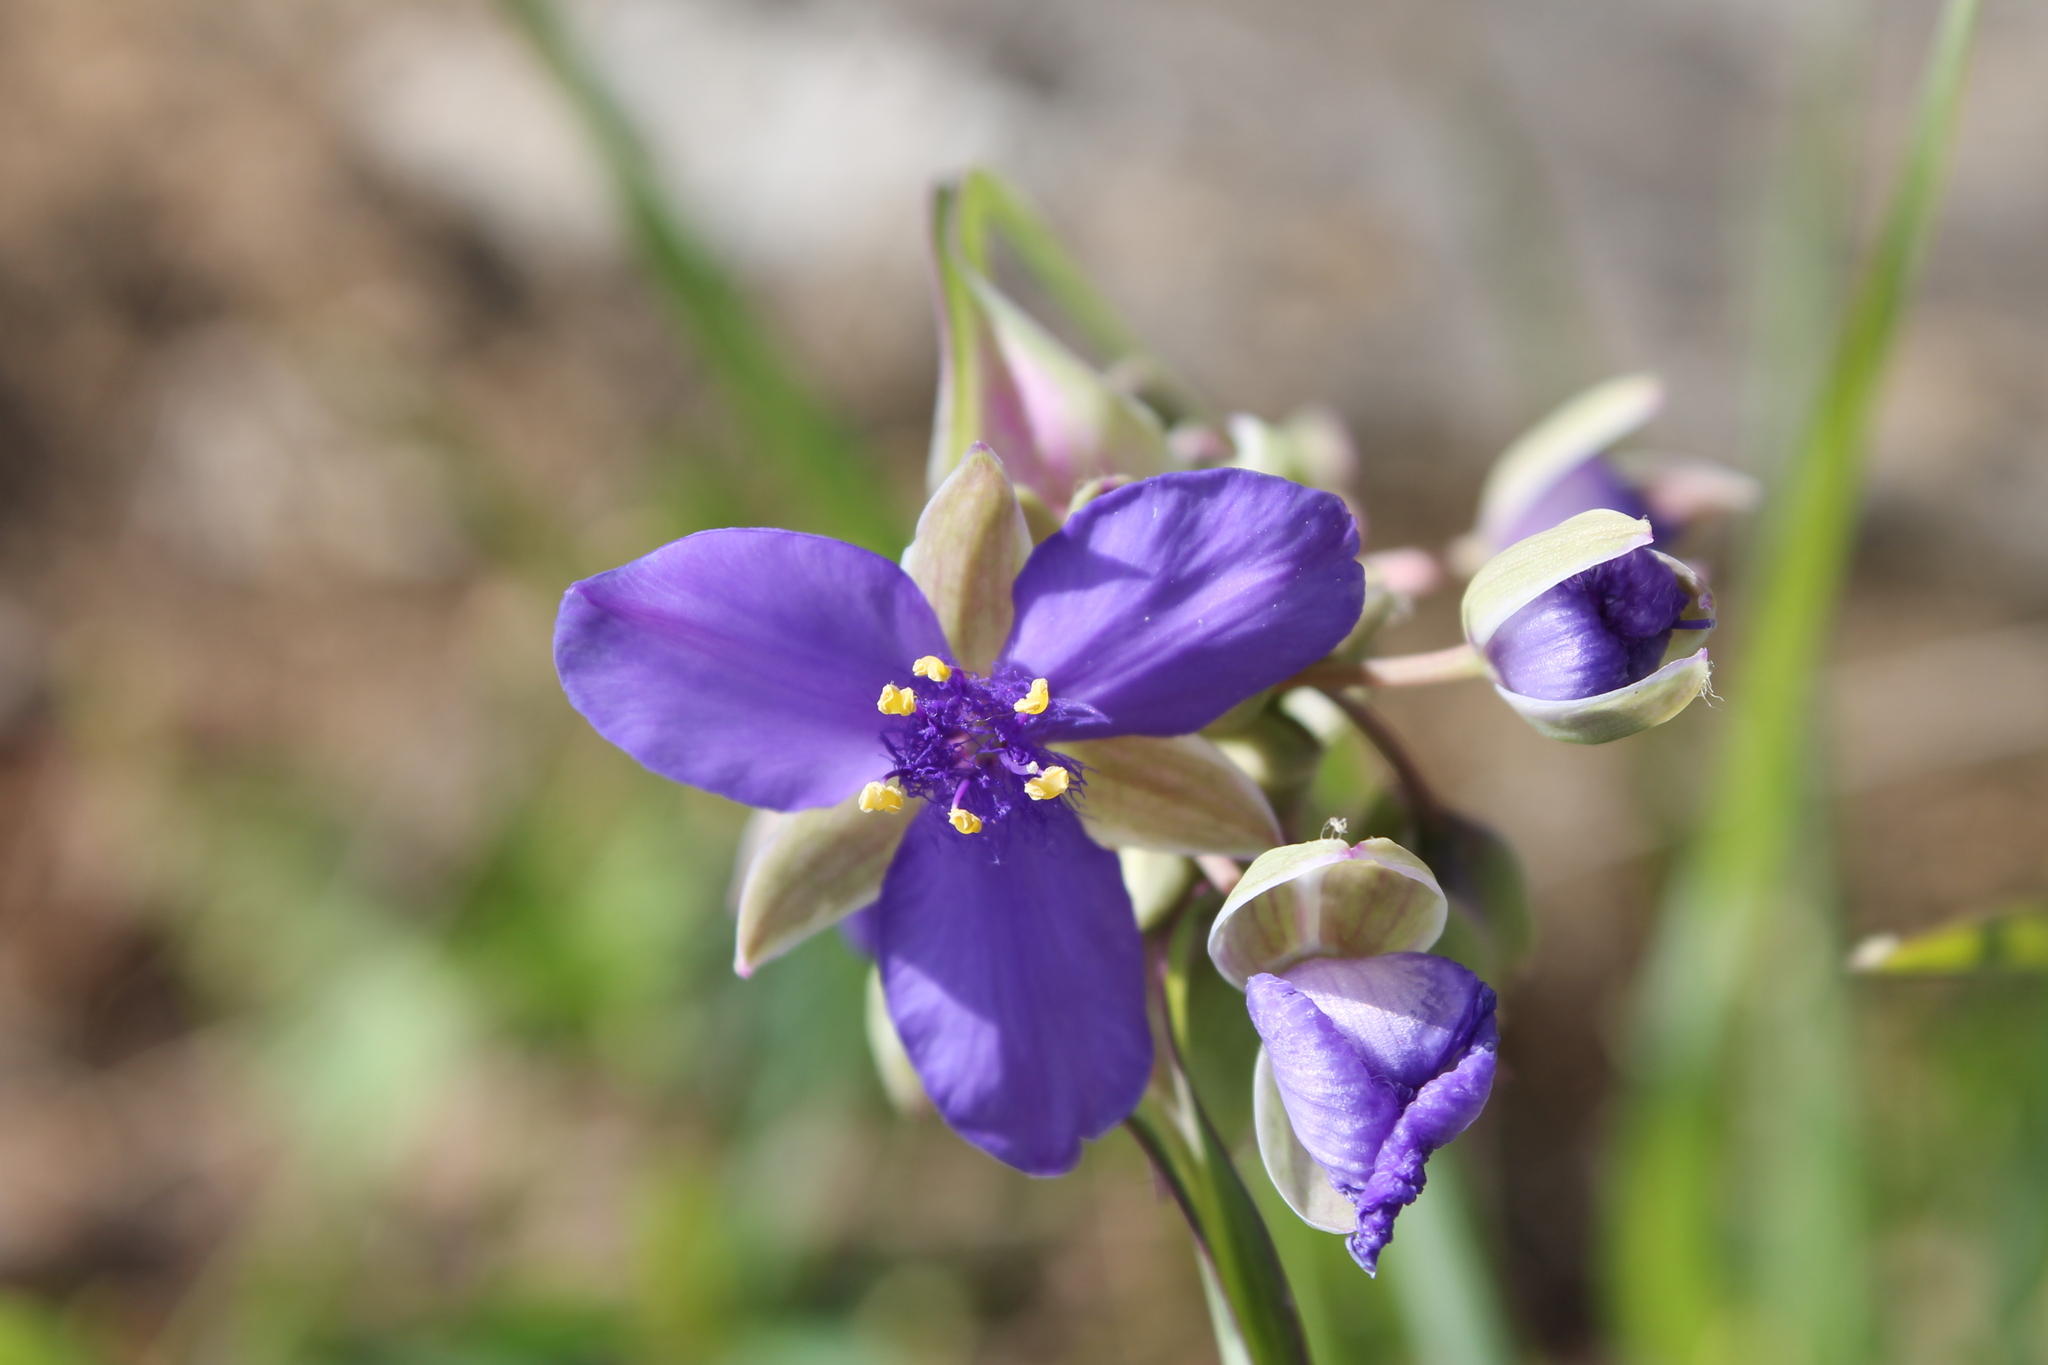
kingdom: Plantae
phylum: Tracheophyta
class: Liliopsida
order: Commelinales
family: Commelinaceae
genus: Tradescantia
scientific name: Tradescantia ohiensis
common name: Ohio spiderwort
